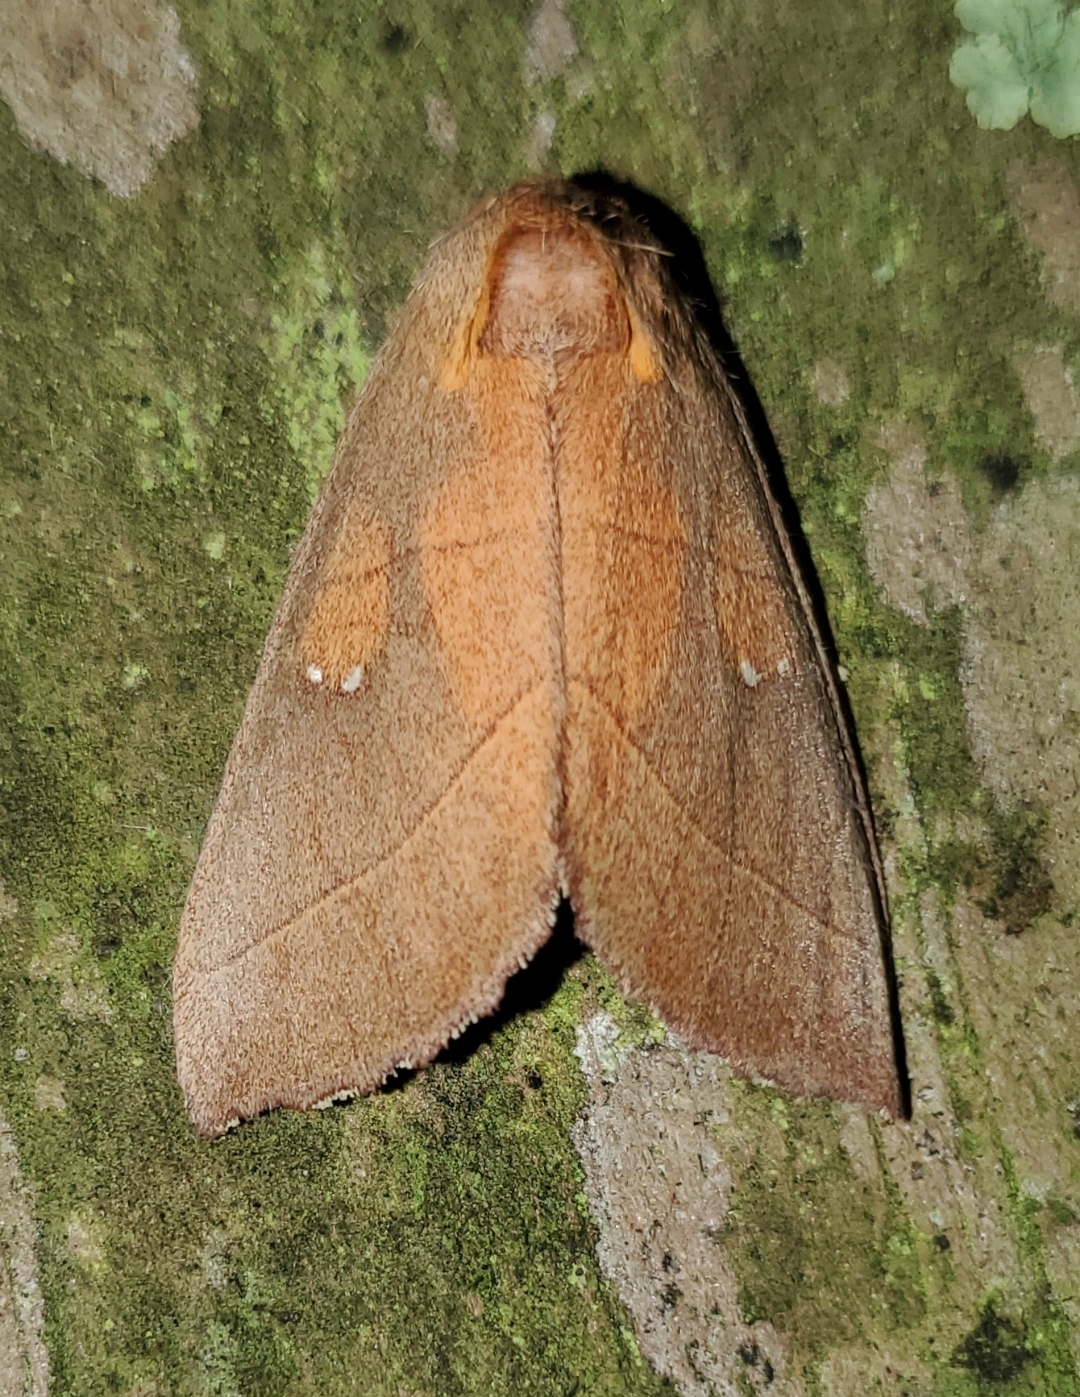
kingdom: Animalia
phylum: Arthropoda
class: Insecta
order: Lepidoptera
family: Notodontidae
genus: Nadata
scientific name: Nadata gibbosa
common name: White-dotted prominent
